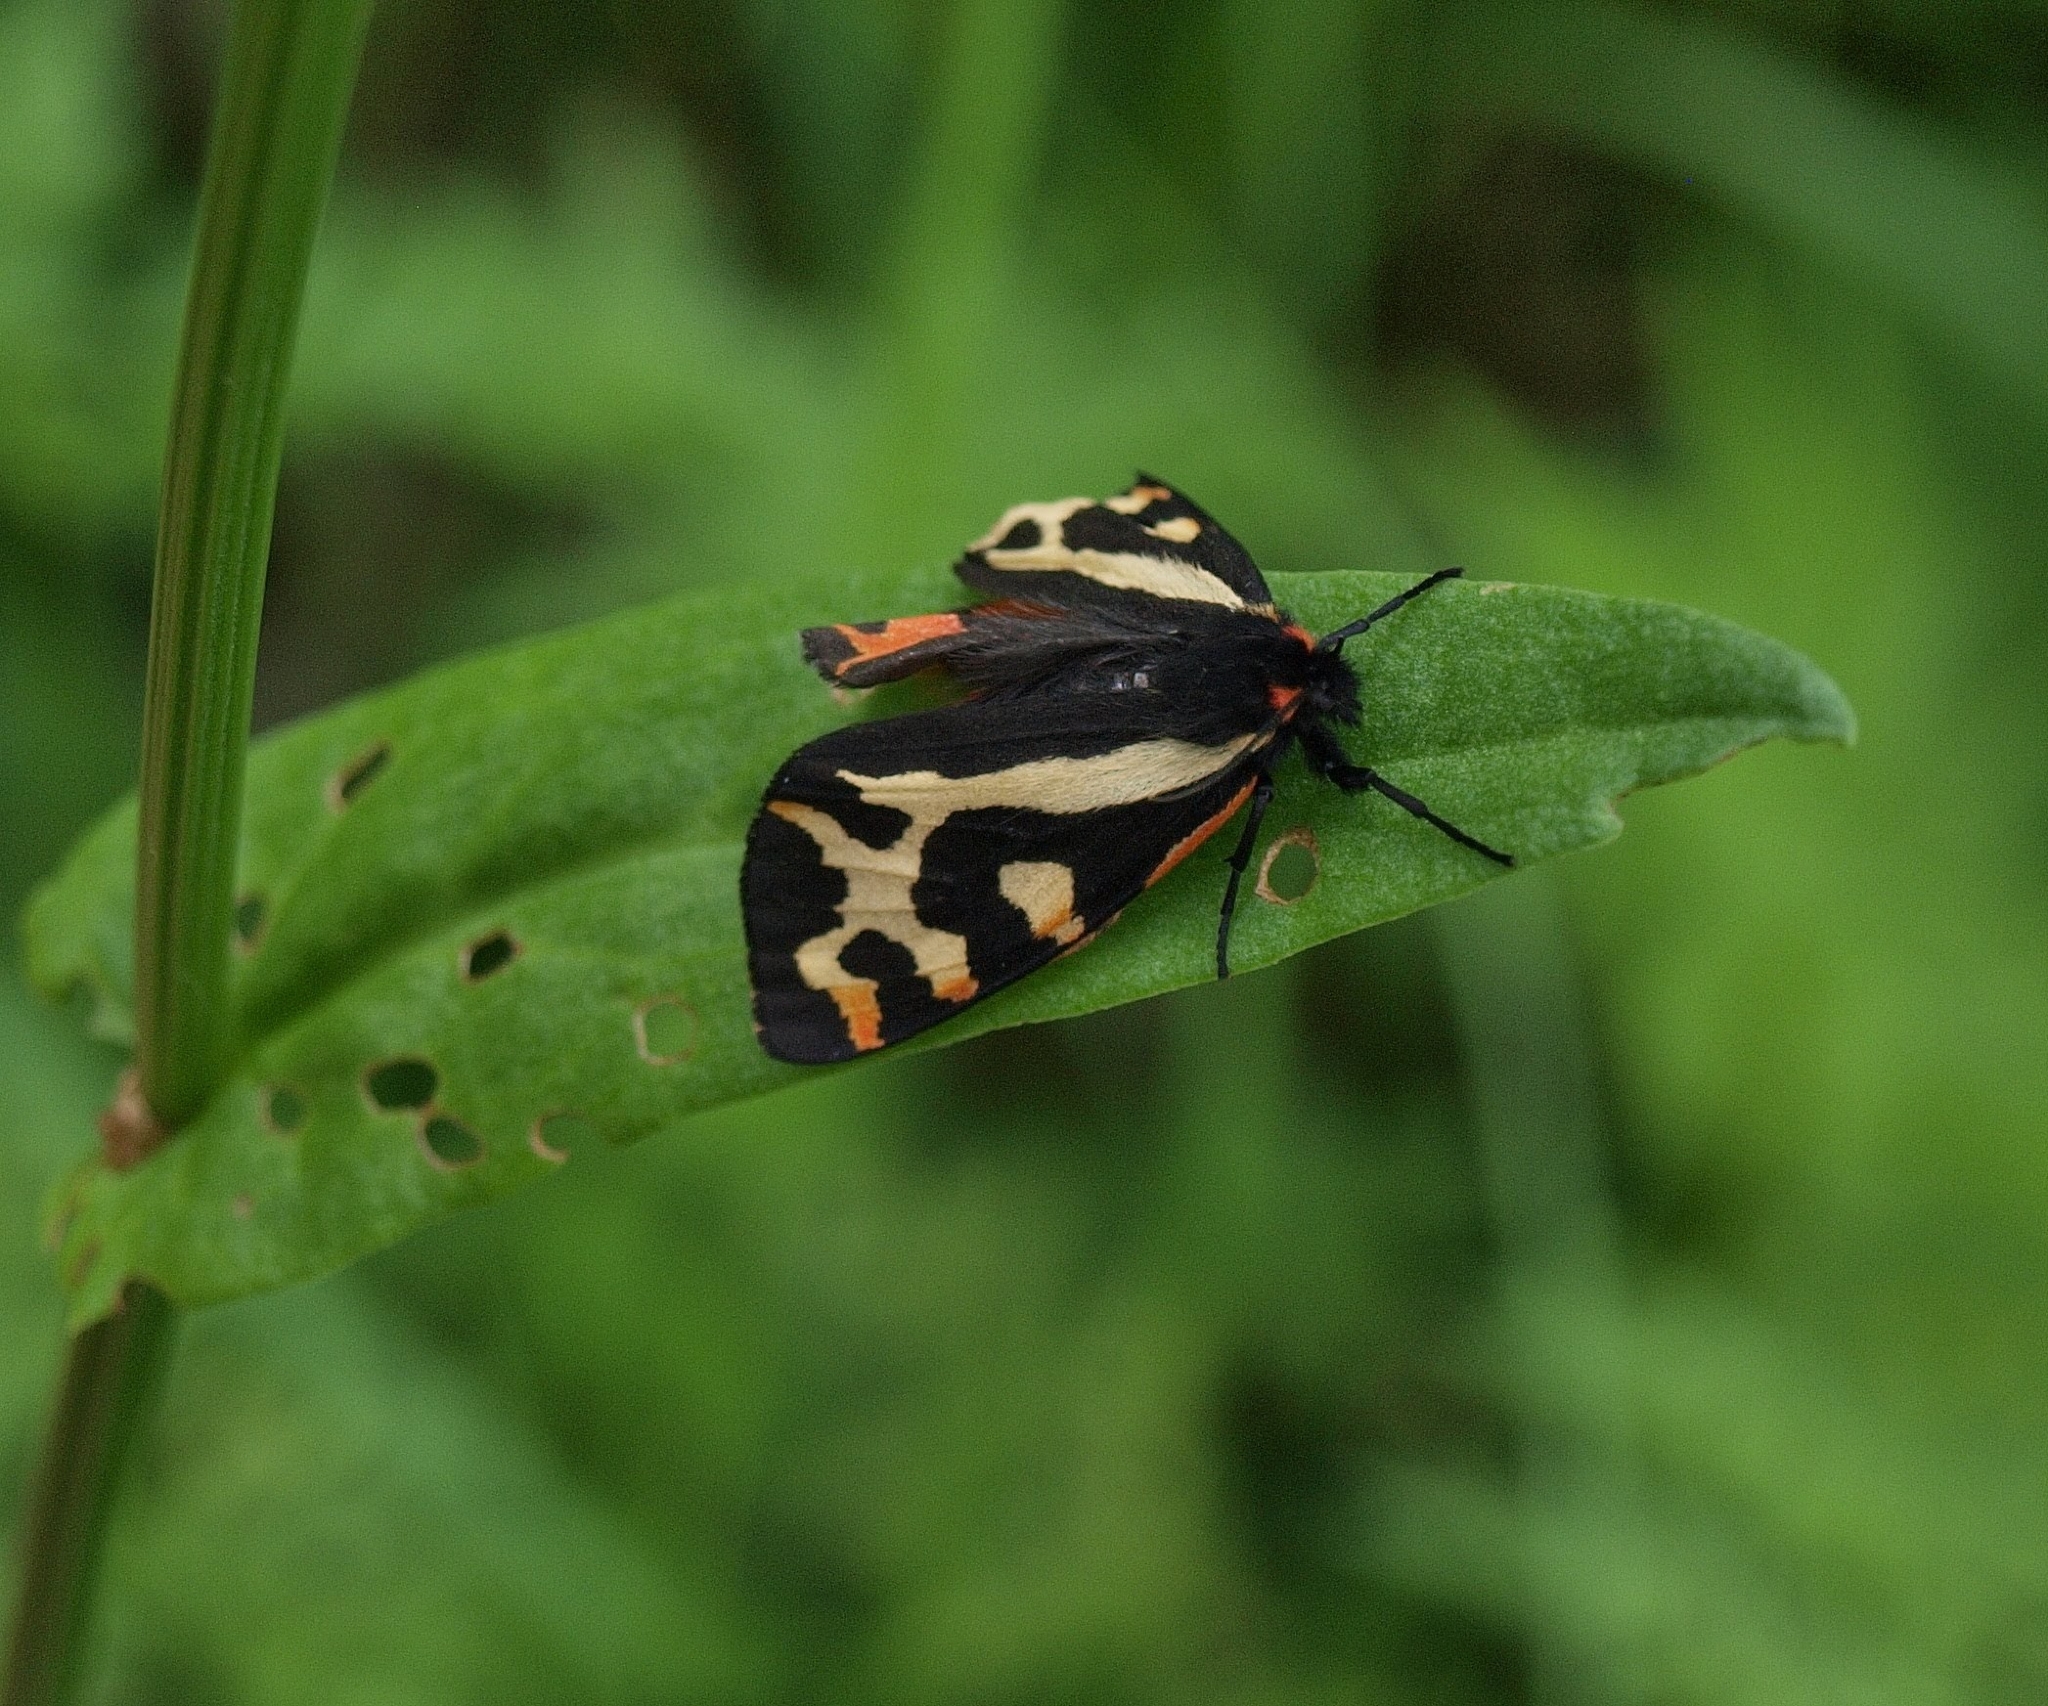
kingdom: Animalia
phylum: Arthropoda
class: Insecta
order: Lepidoptera
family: Erebidae
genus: Parasemia
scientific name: Parasemia plantaginis
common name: Wood tiger
